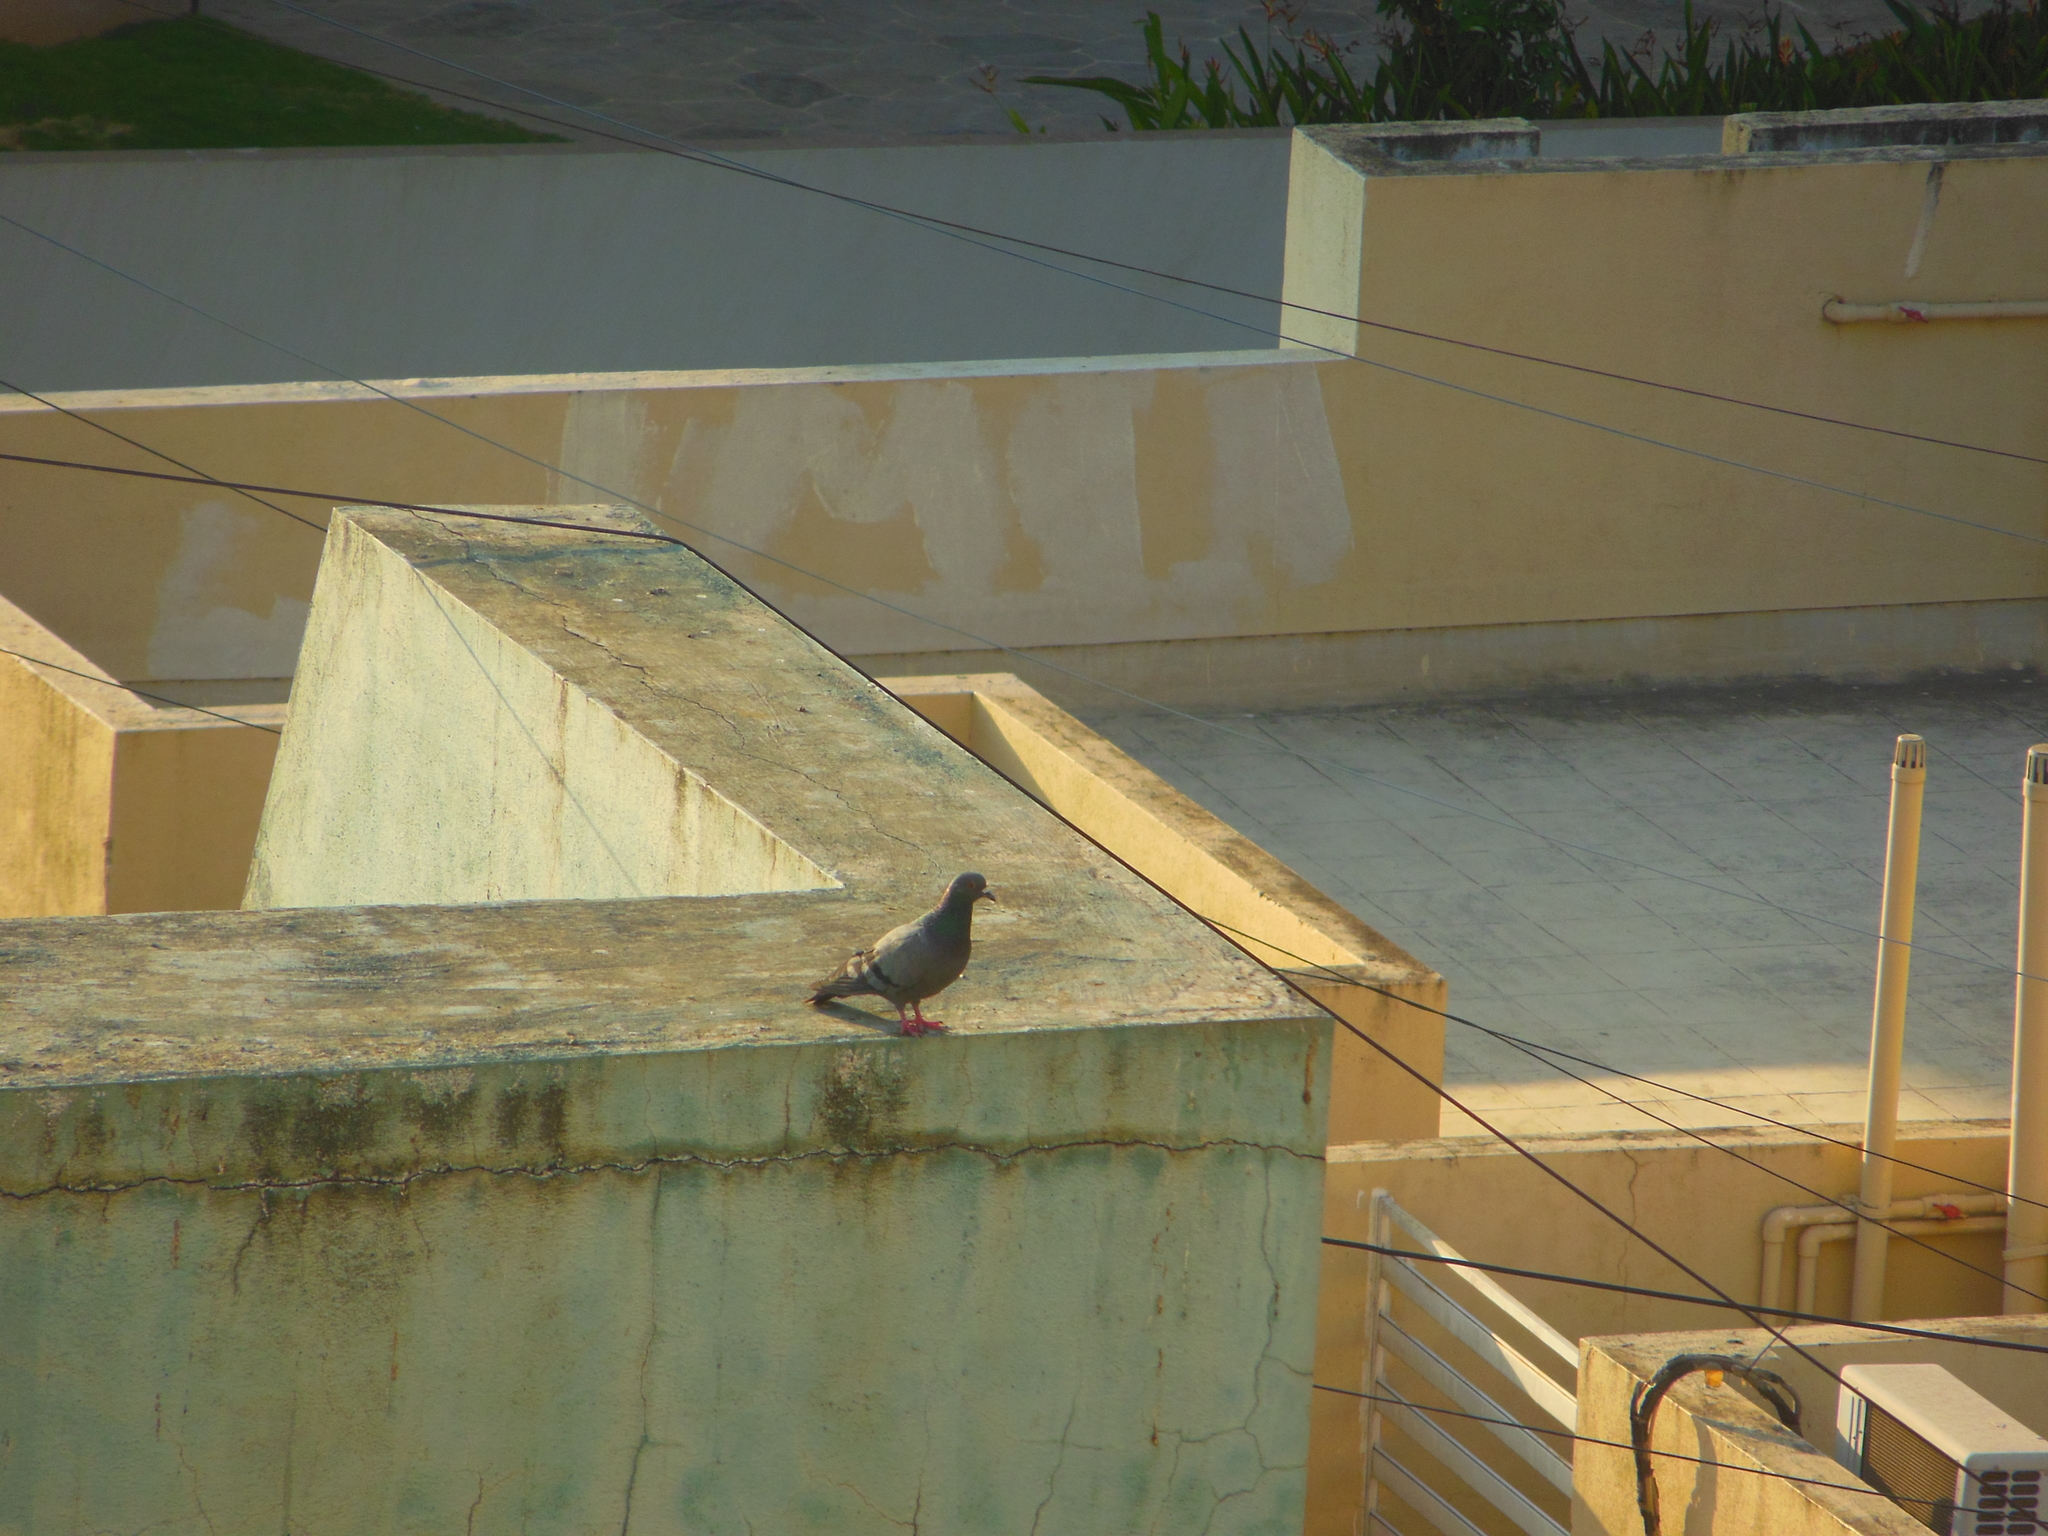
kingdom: Animalia
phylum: Chordata
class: Aves
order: Columbiformes
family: Columbidae
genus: Columba
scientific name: Columba livia
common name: Rock pigeon
